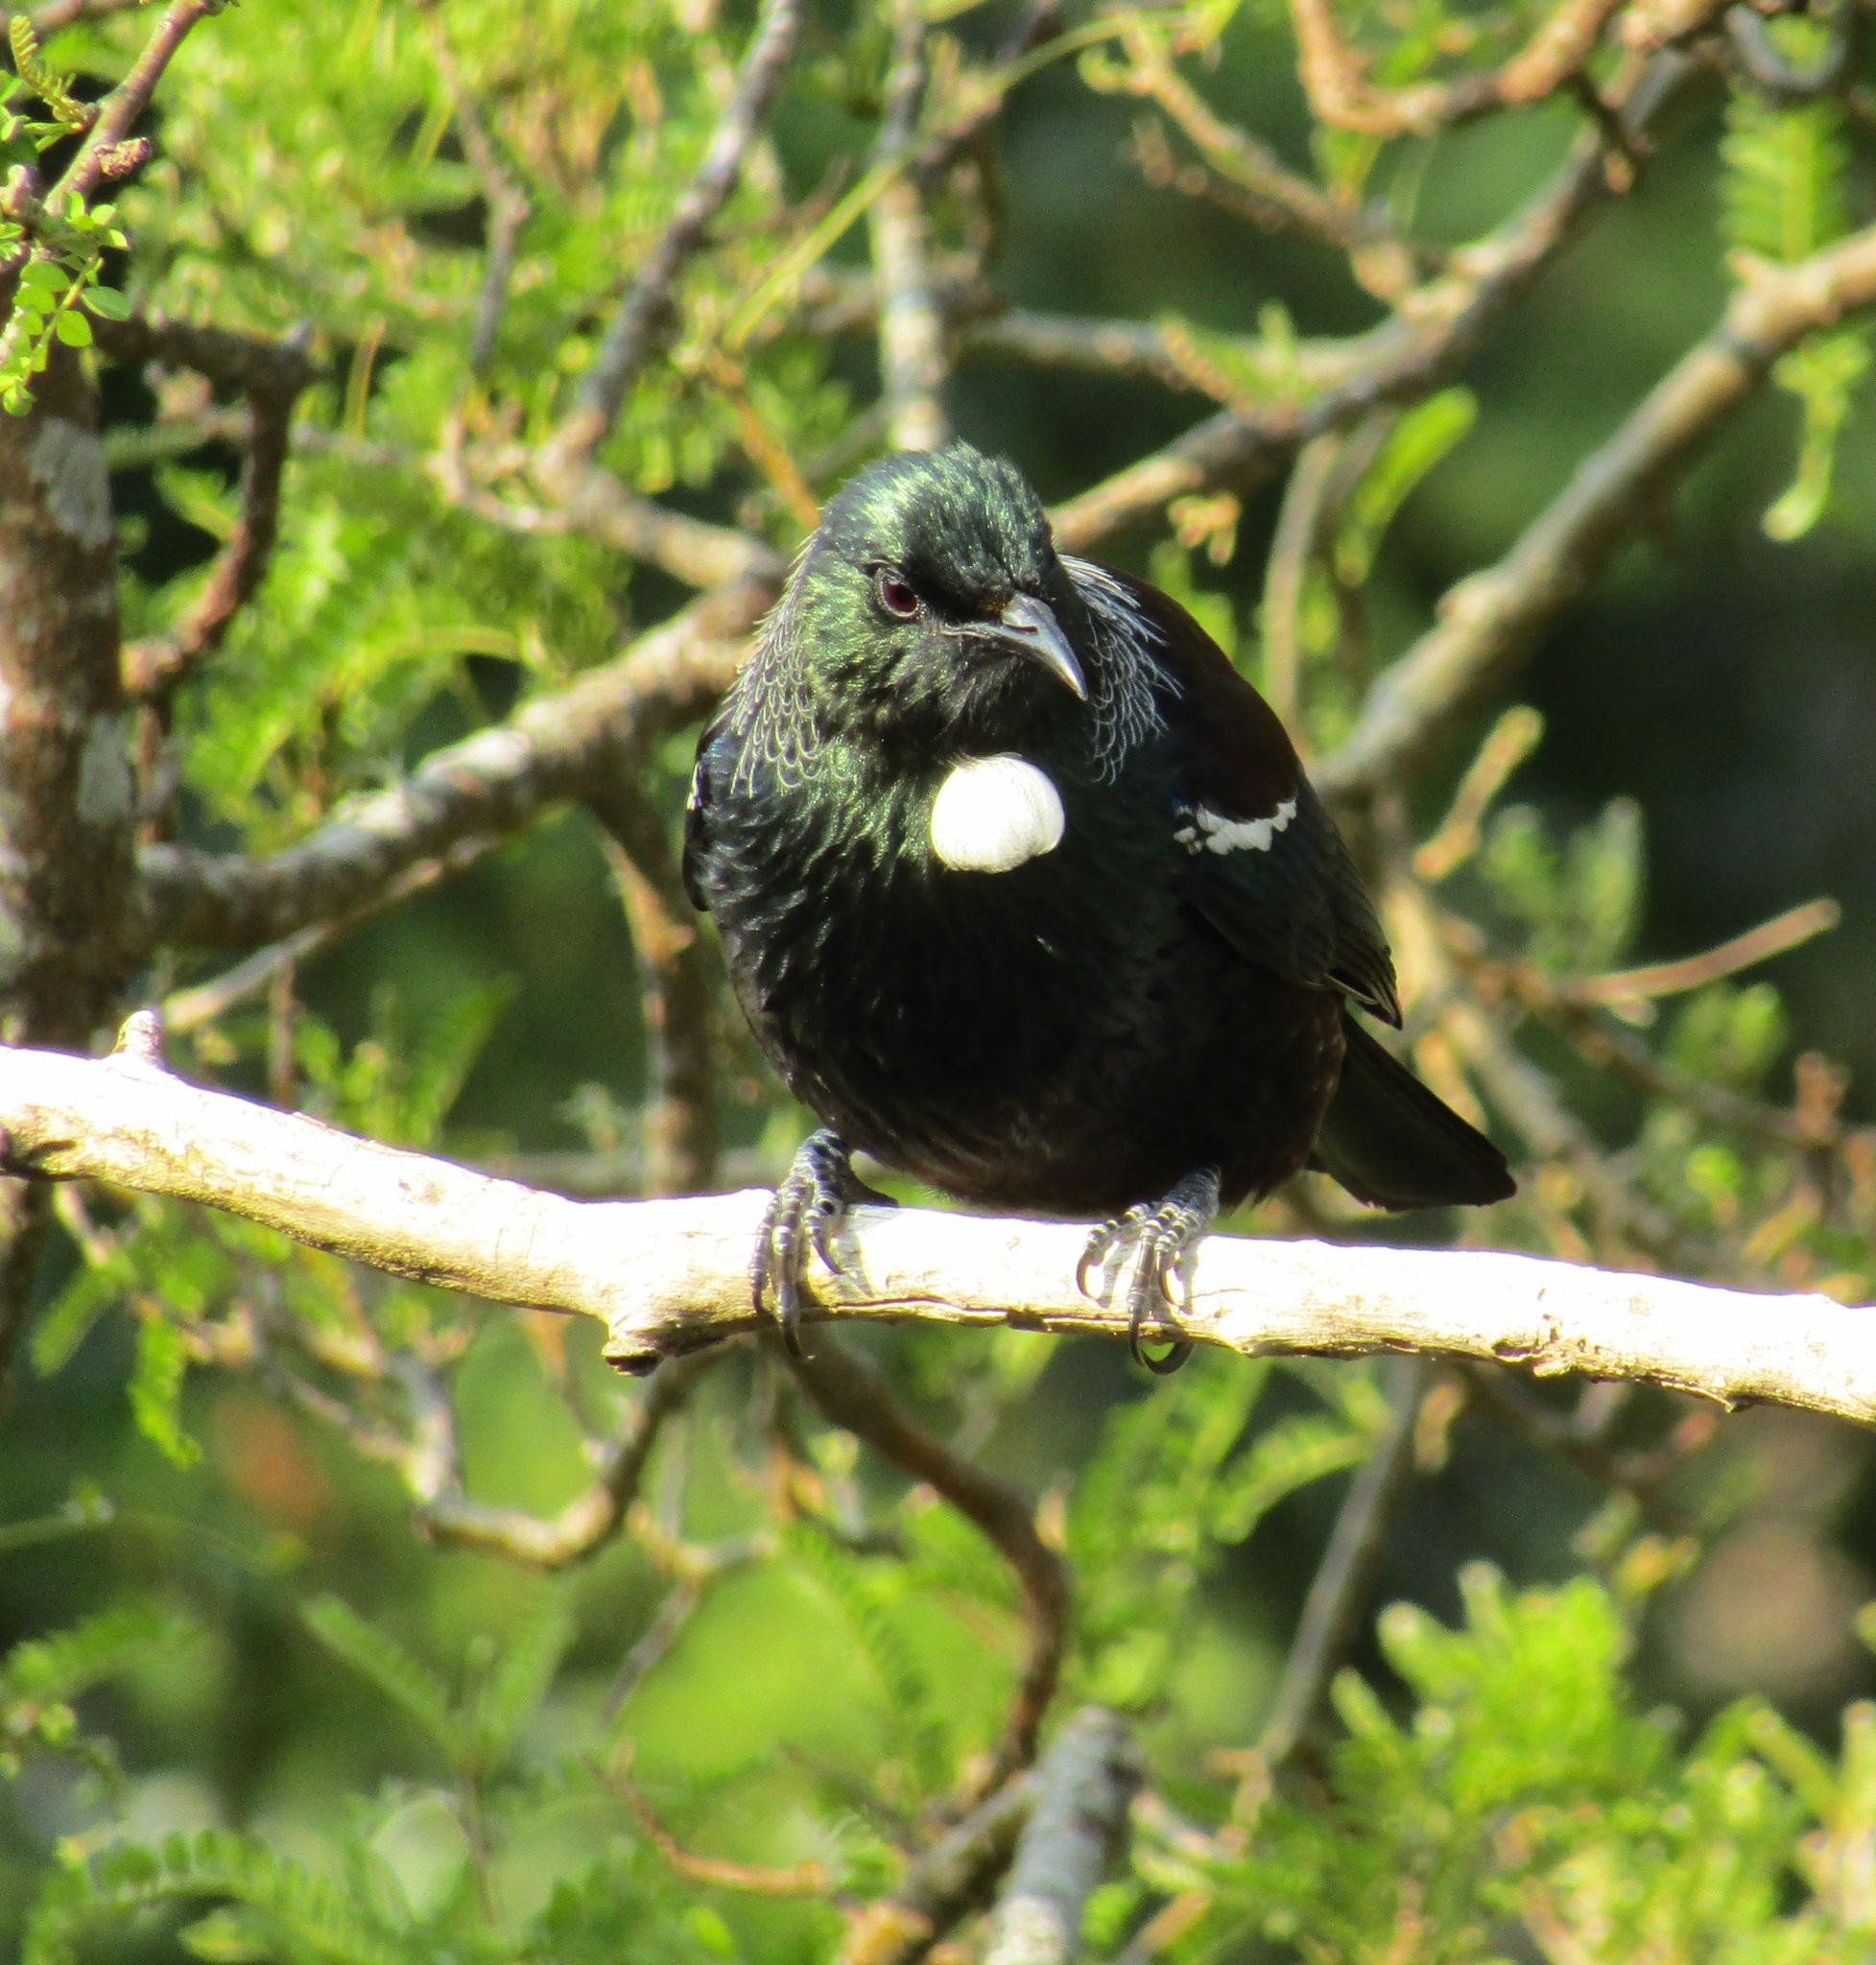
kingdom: Animalia
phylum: Chordata
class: Aves
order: Passeriformes
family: Meliphagidae
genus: Prosthemadera
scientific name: Prosthemadera novaeseelandiae
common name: Tui
